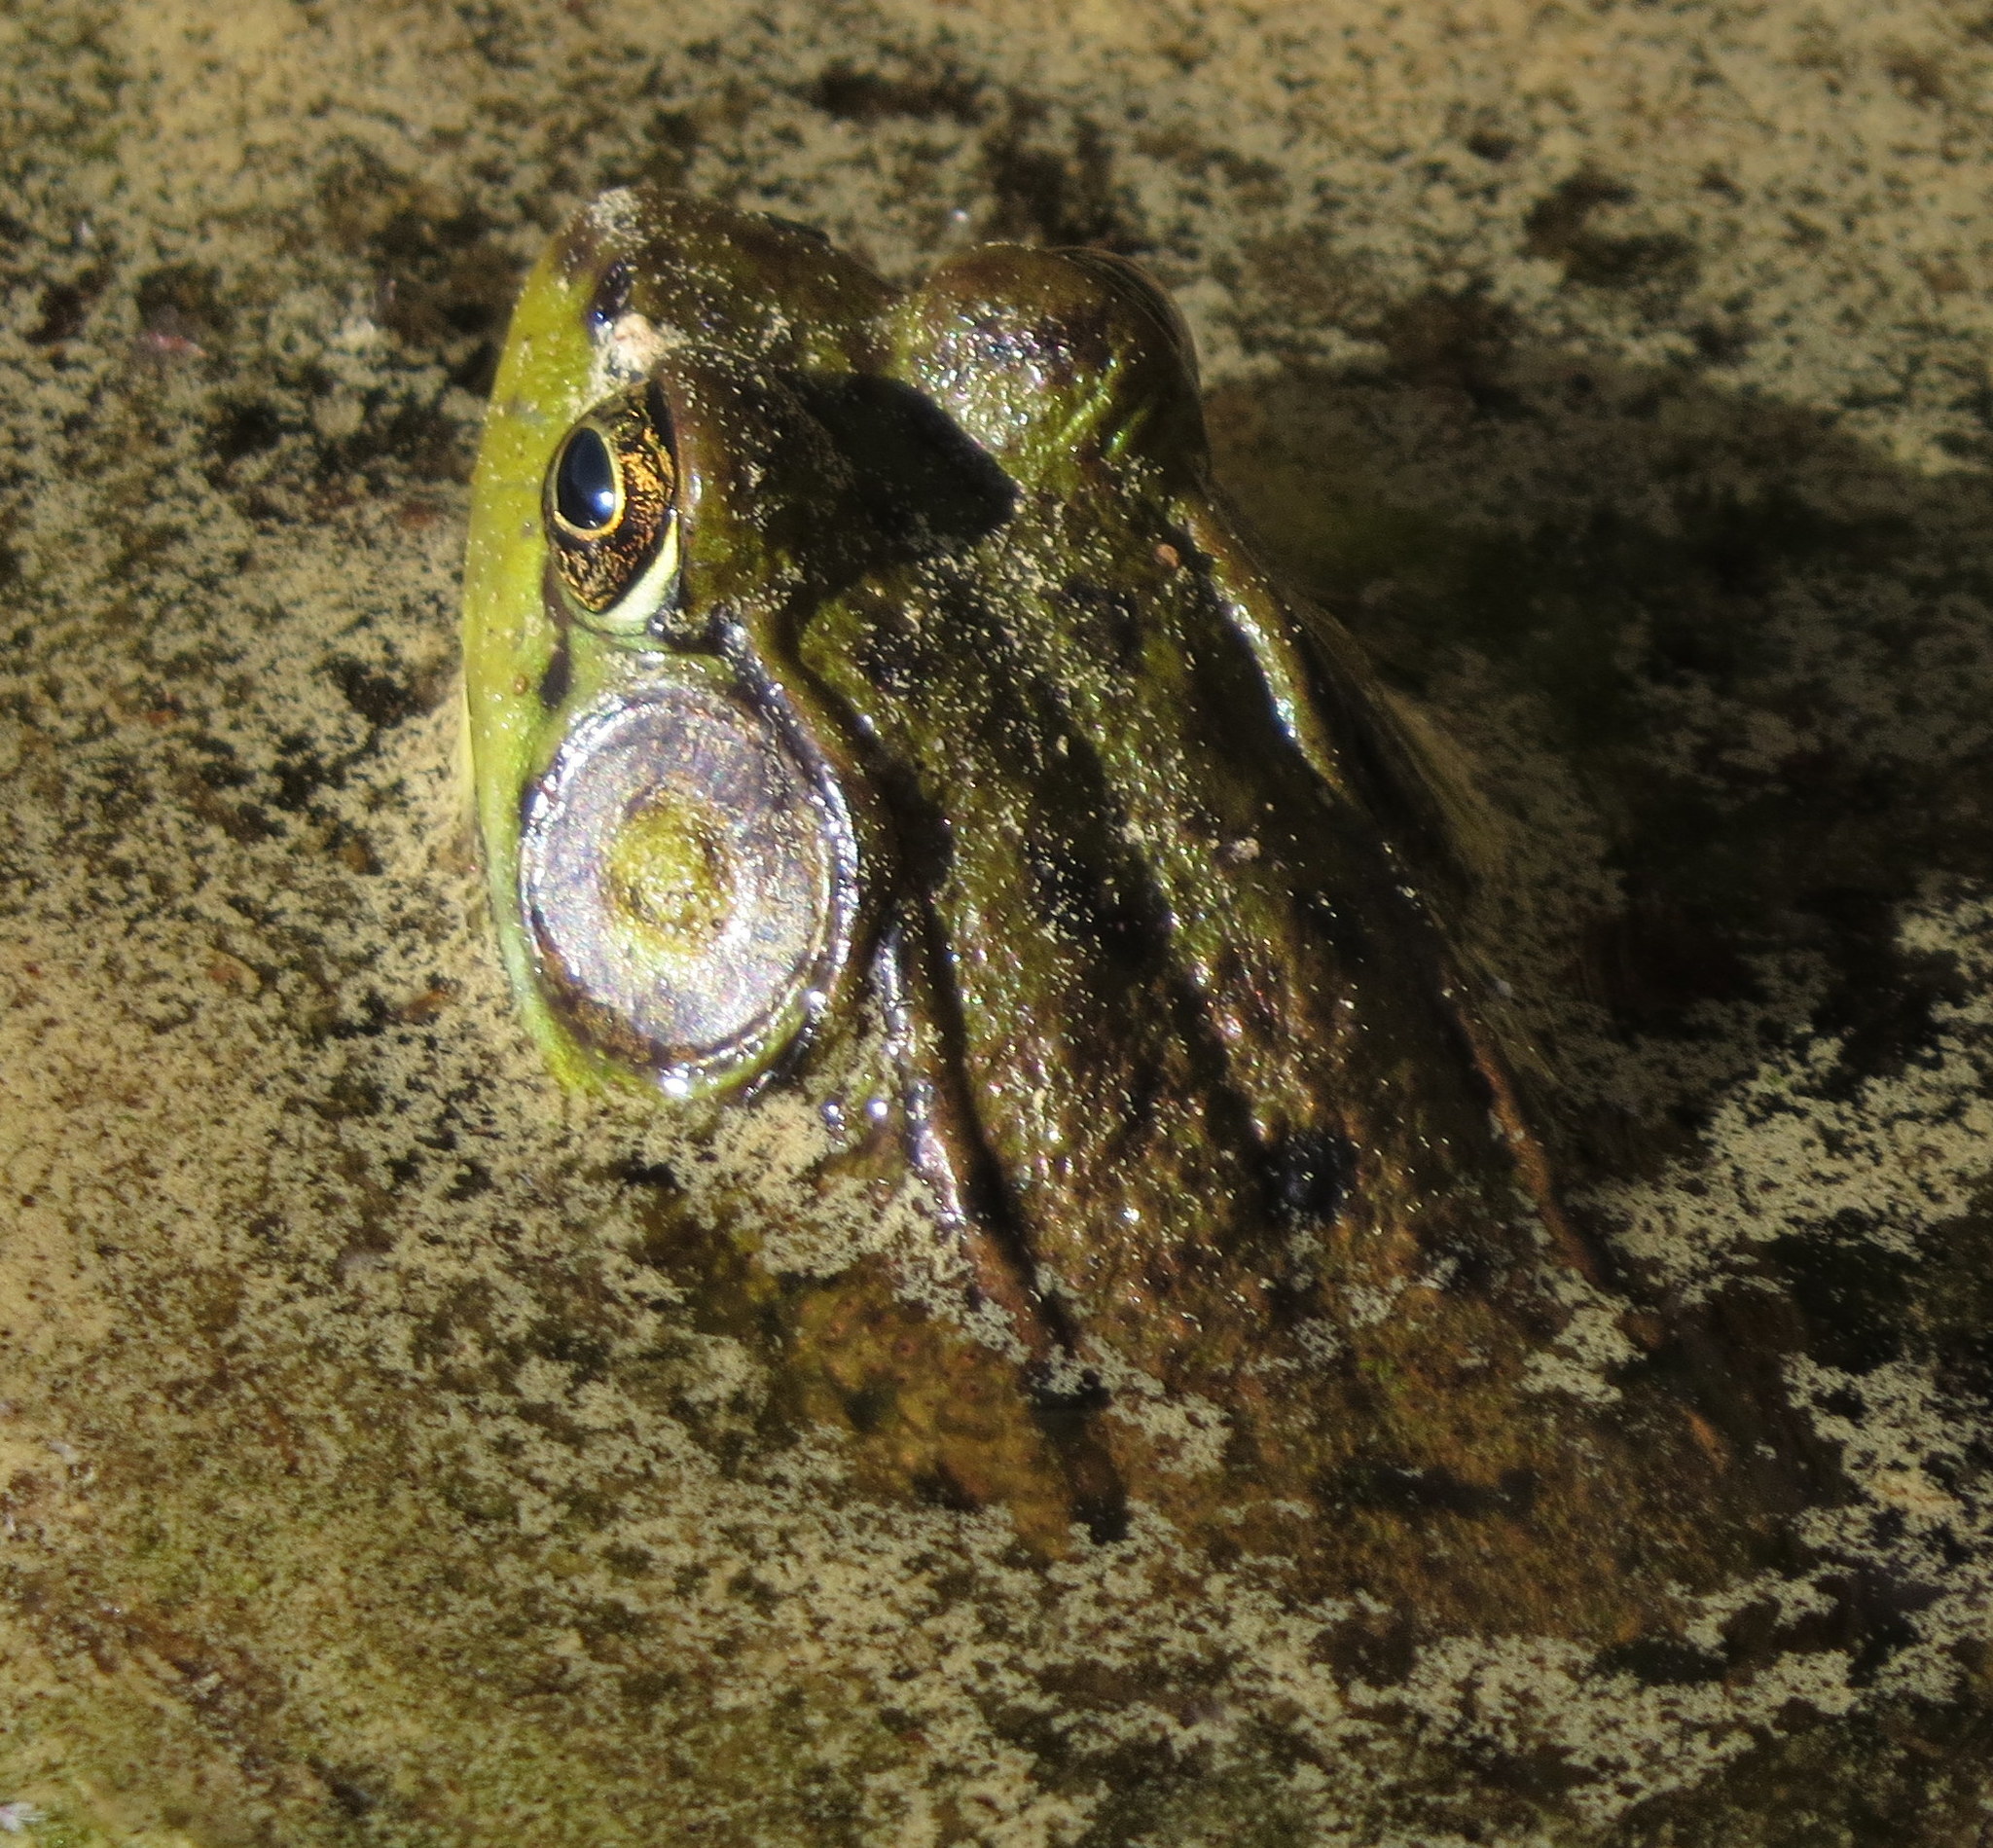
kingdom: Animalia
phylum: Chordata
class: Amphibia
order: Anura
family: Ranidae
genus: Lithobates
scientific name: Lithobates clamitans
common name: Green frog
